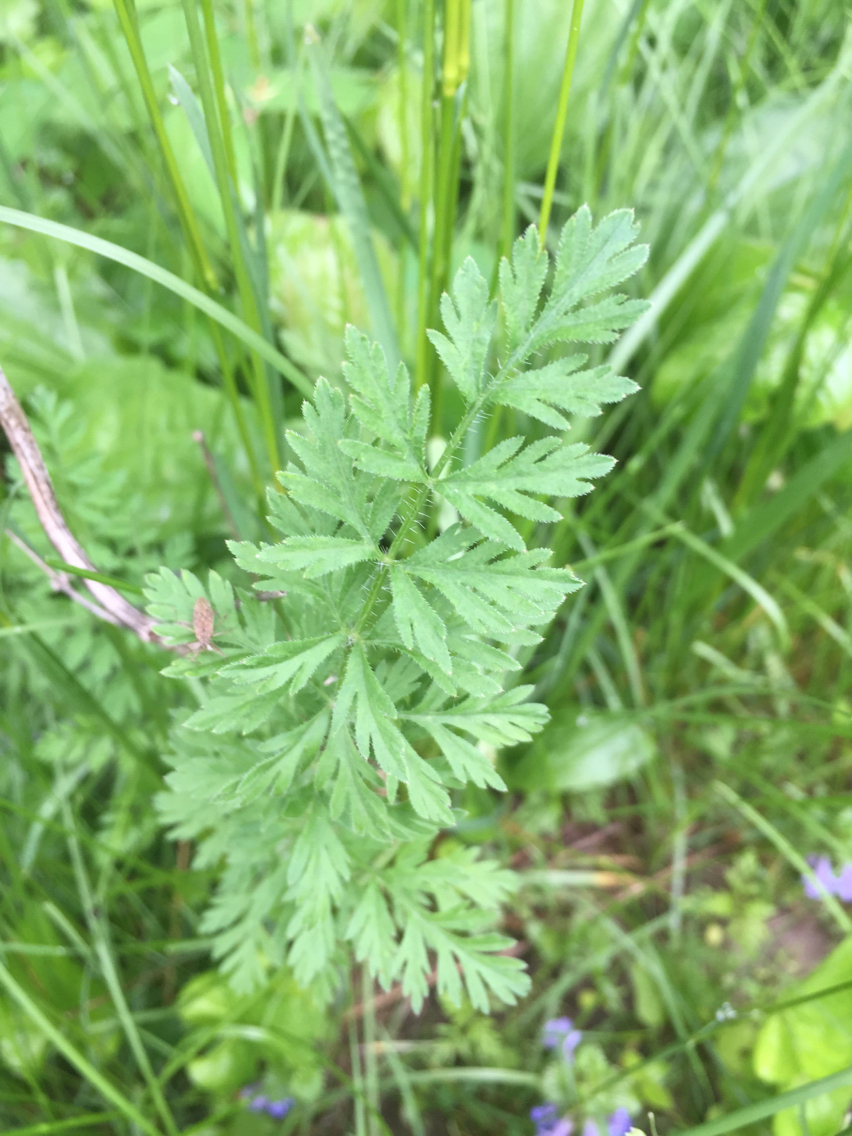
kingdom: Plantae
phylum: Tracheophyta
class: Magnoliopsida
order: Apiales
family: Apiaceae
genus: Daucus
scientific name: Daucus carota
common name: Wild carrot
